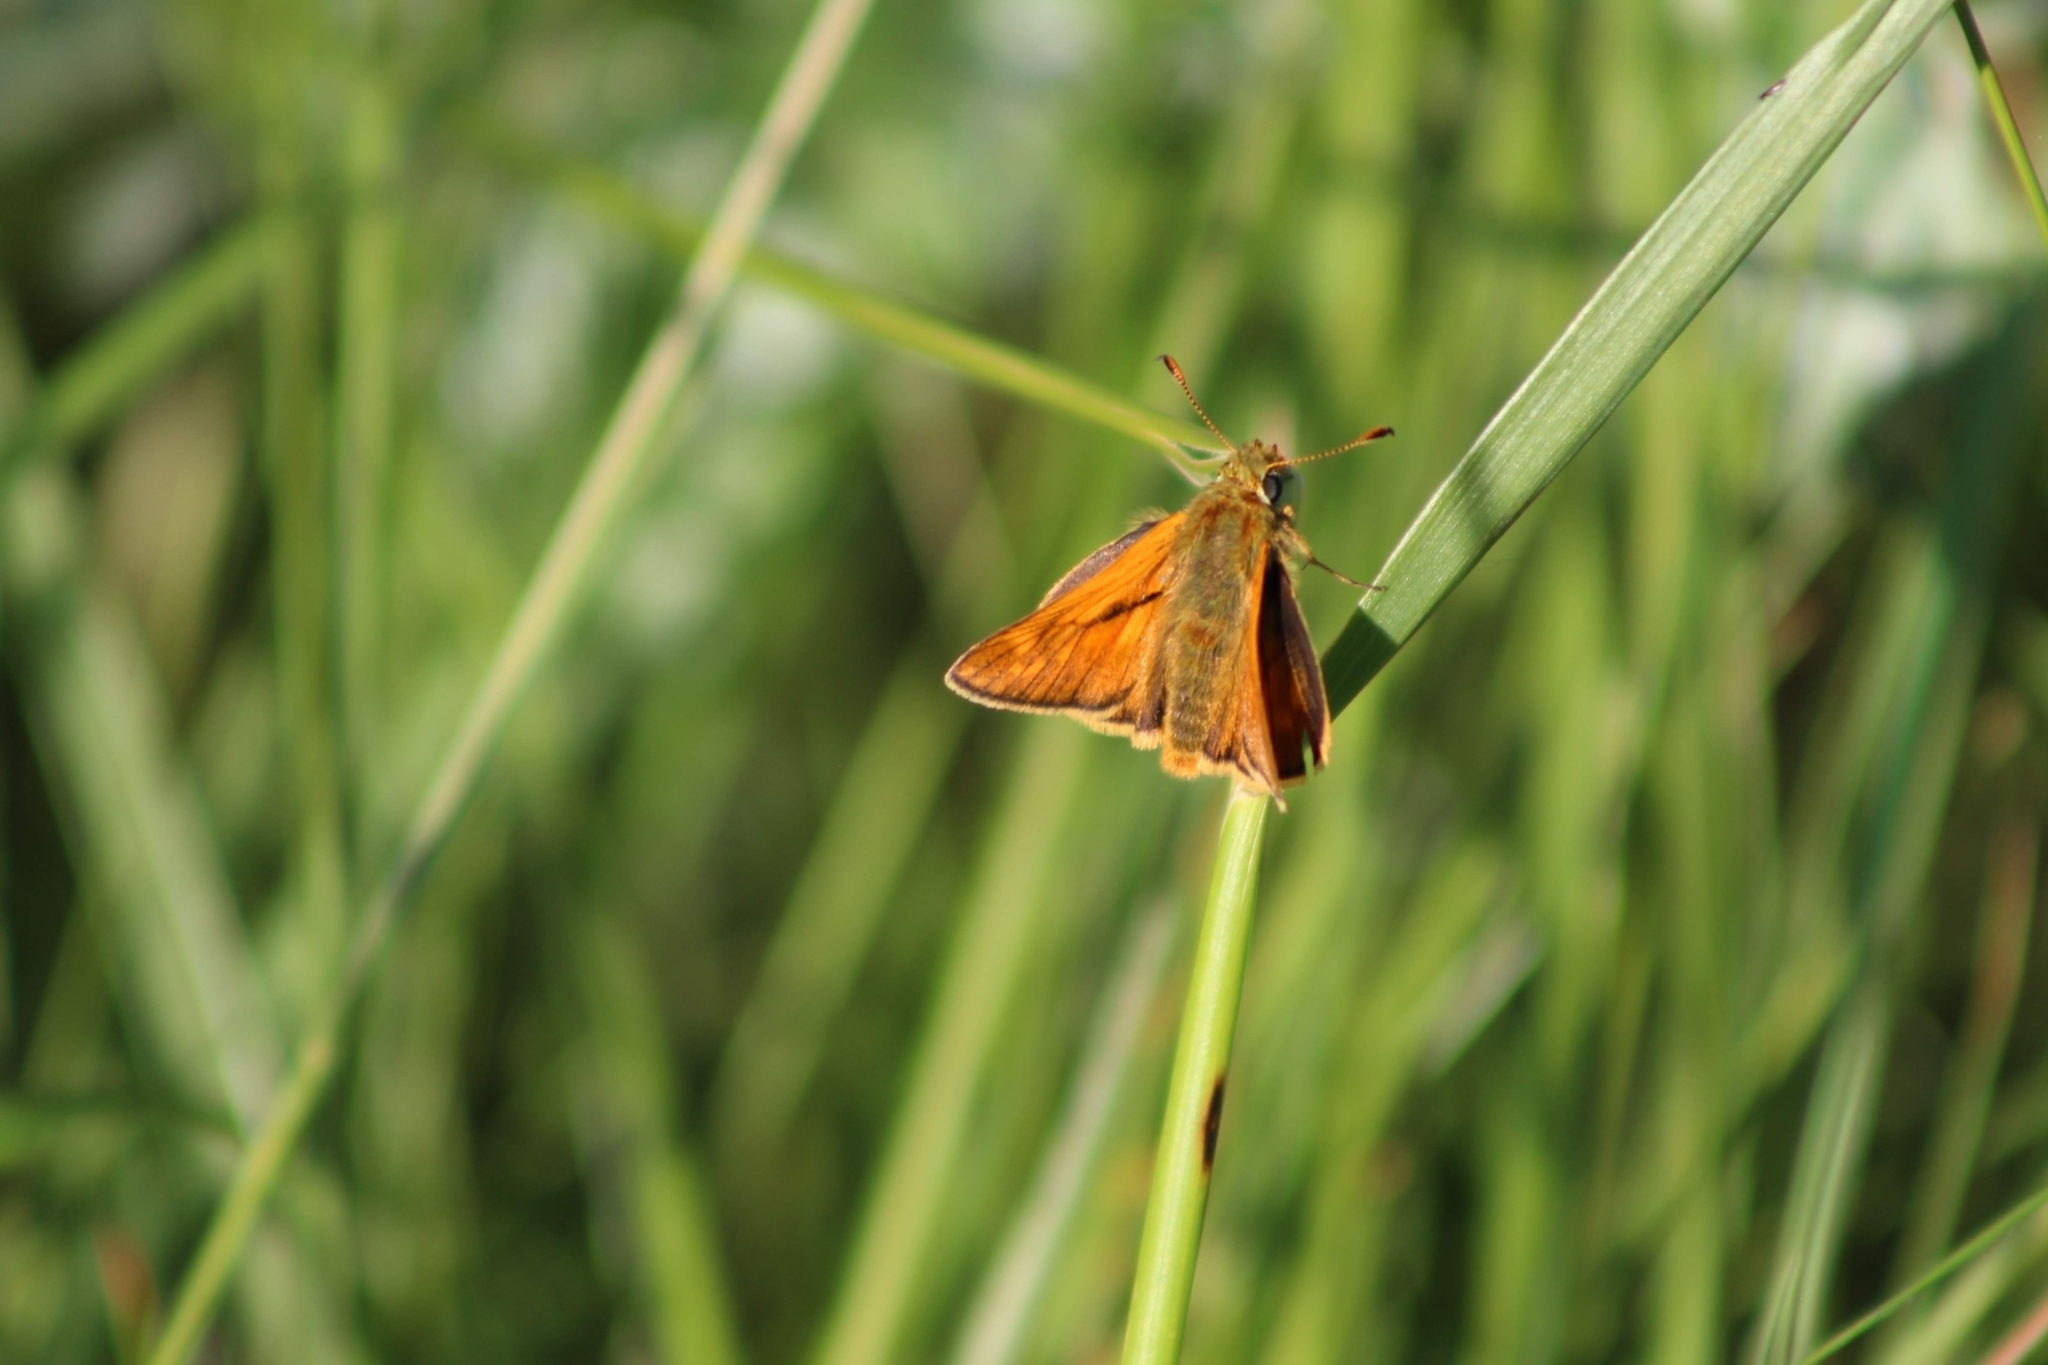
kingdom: Animalia
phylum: Arthropoda
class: Insecta
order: Lepidoptera
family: Hesperiidae
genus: Ochlodes
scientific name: Ochlodes venata
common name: Large skipper
